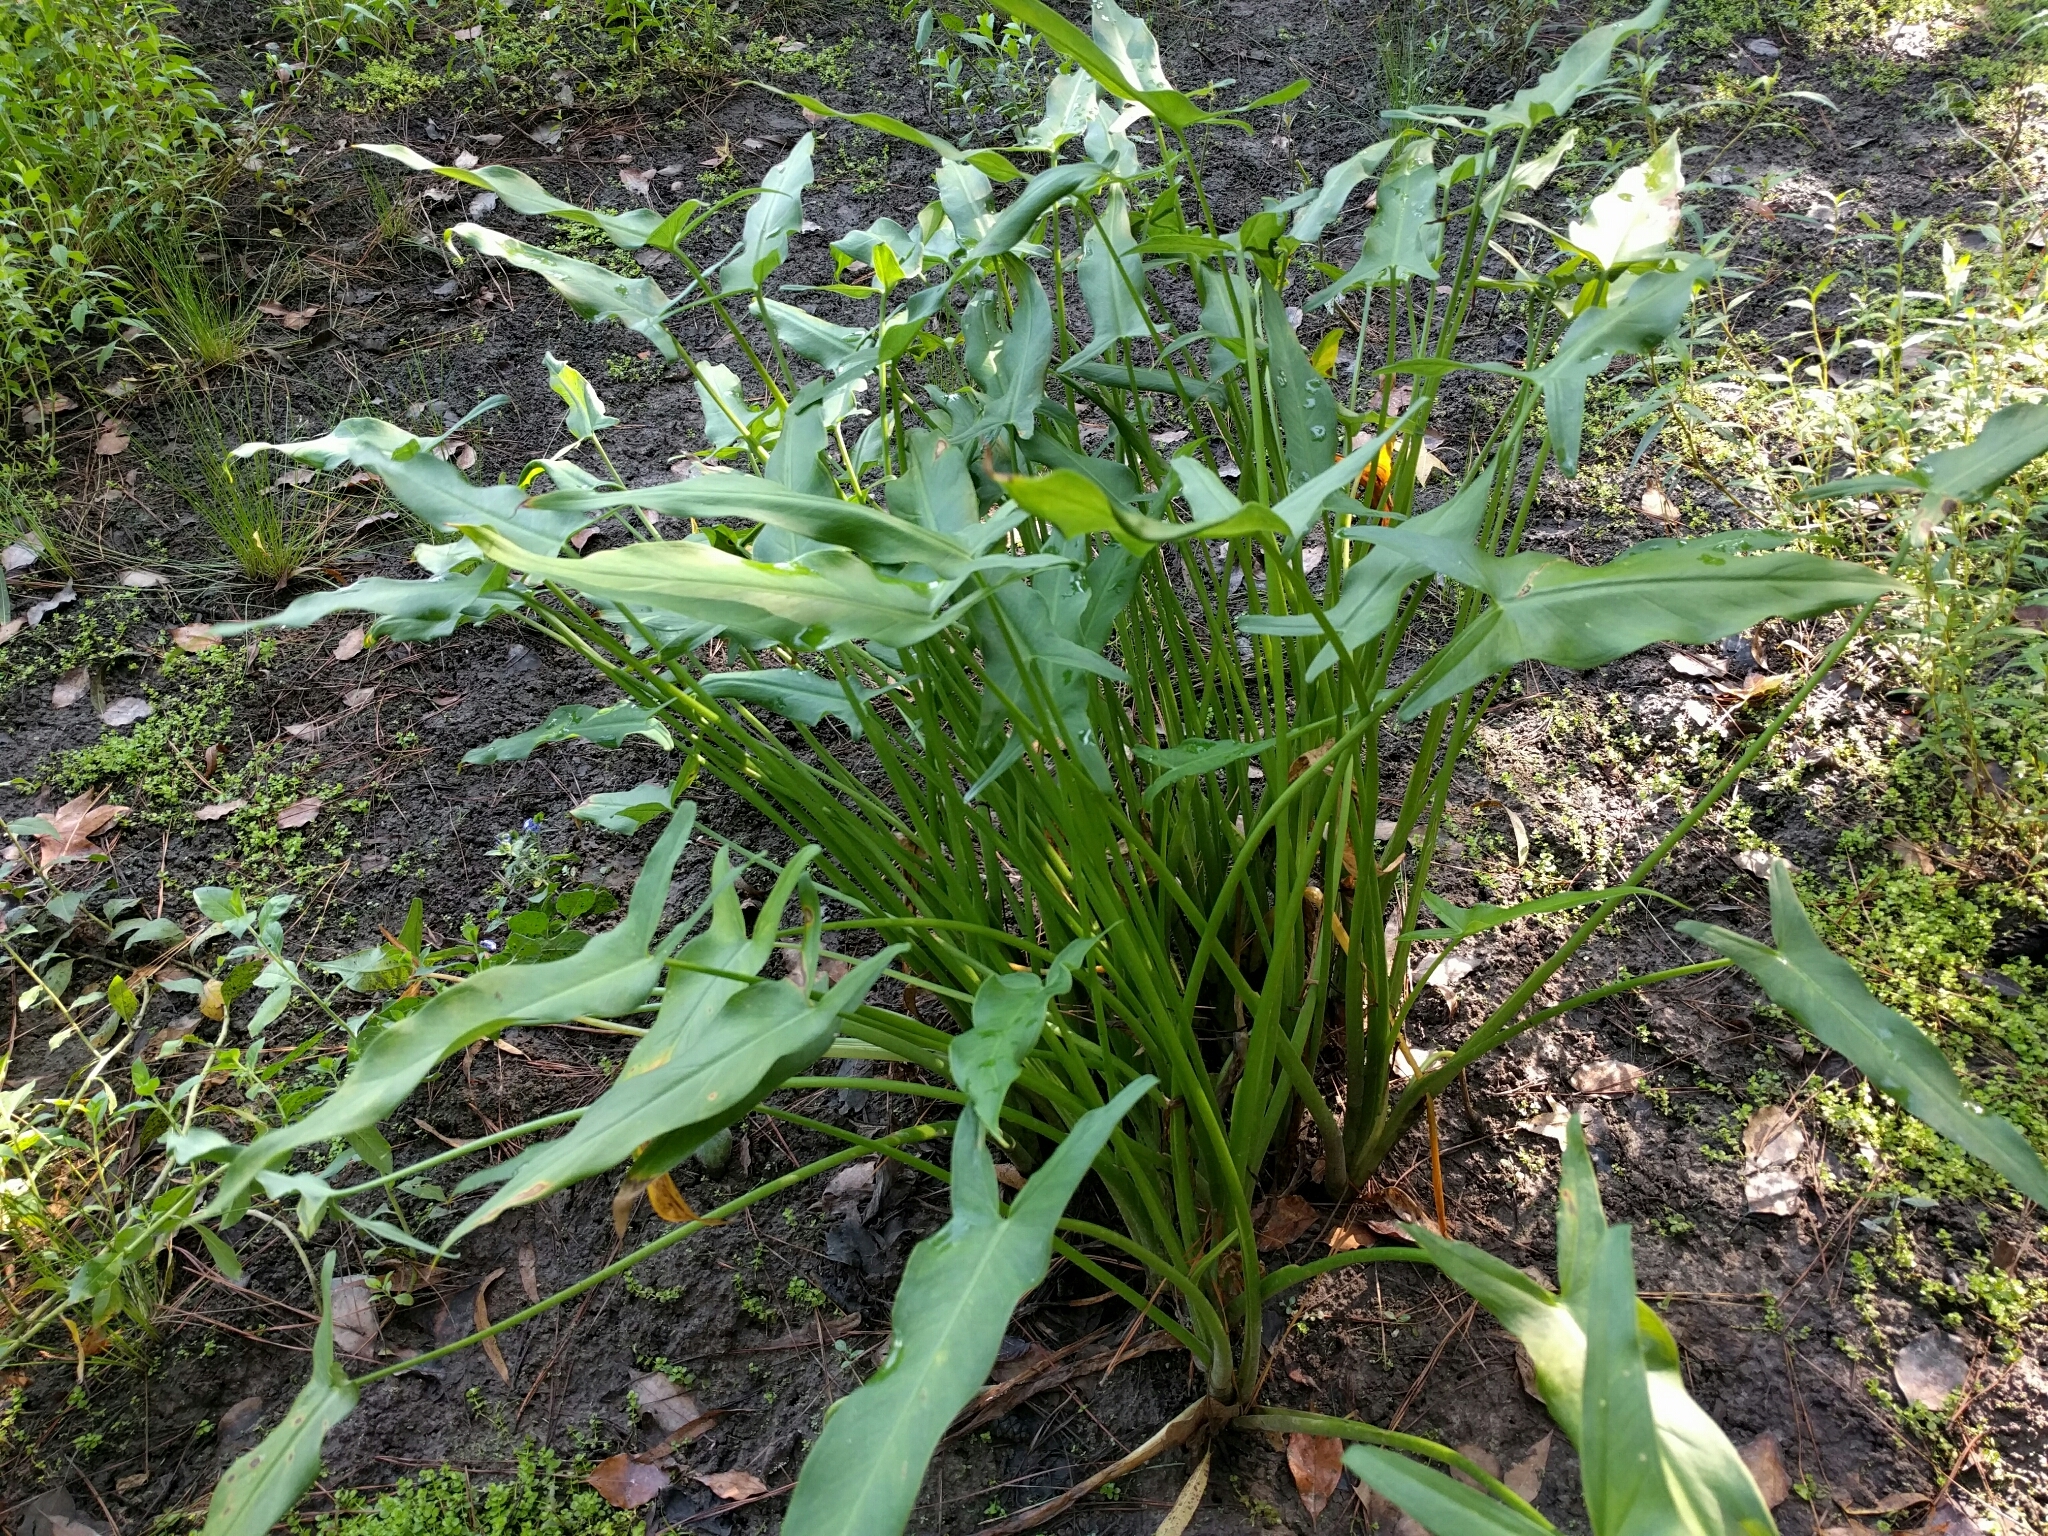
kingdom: Plantae
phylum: Tracheophyta
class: Liliopsida
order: Alismatales
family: Araceae
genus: Peltandra
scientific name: Peltandra virginica
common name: Arrow arum
